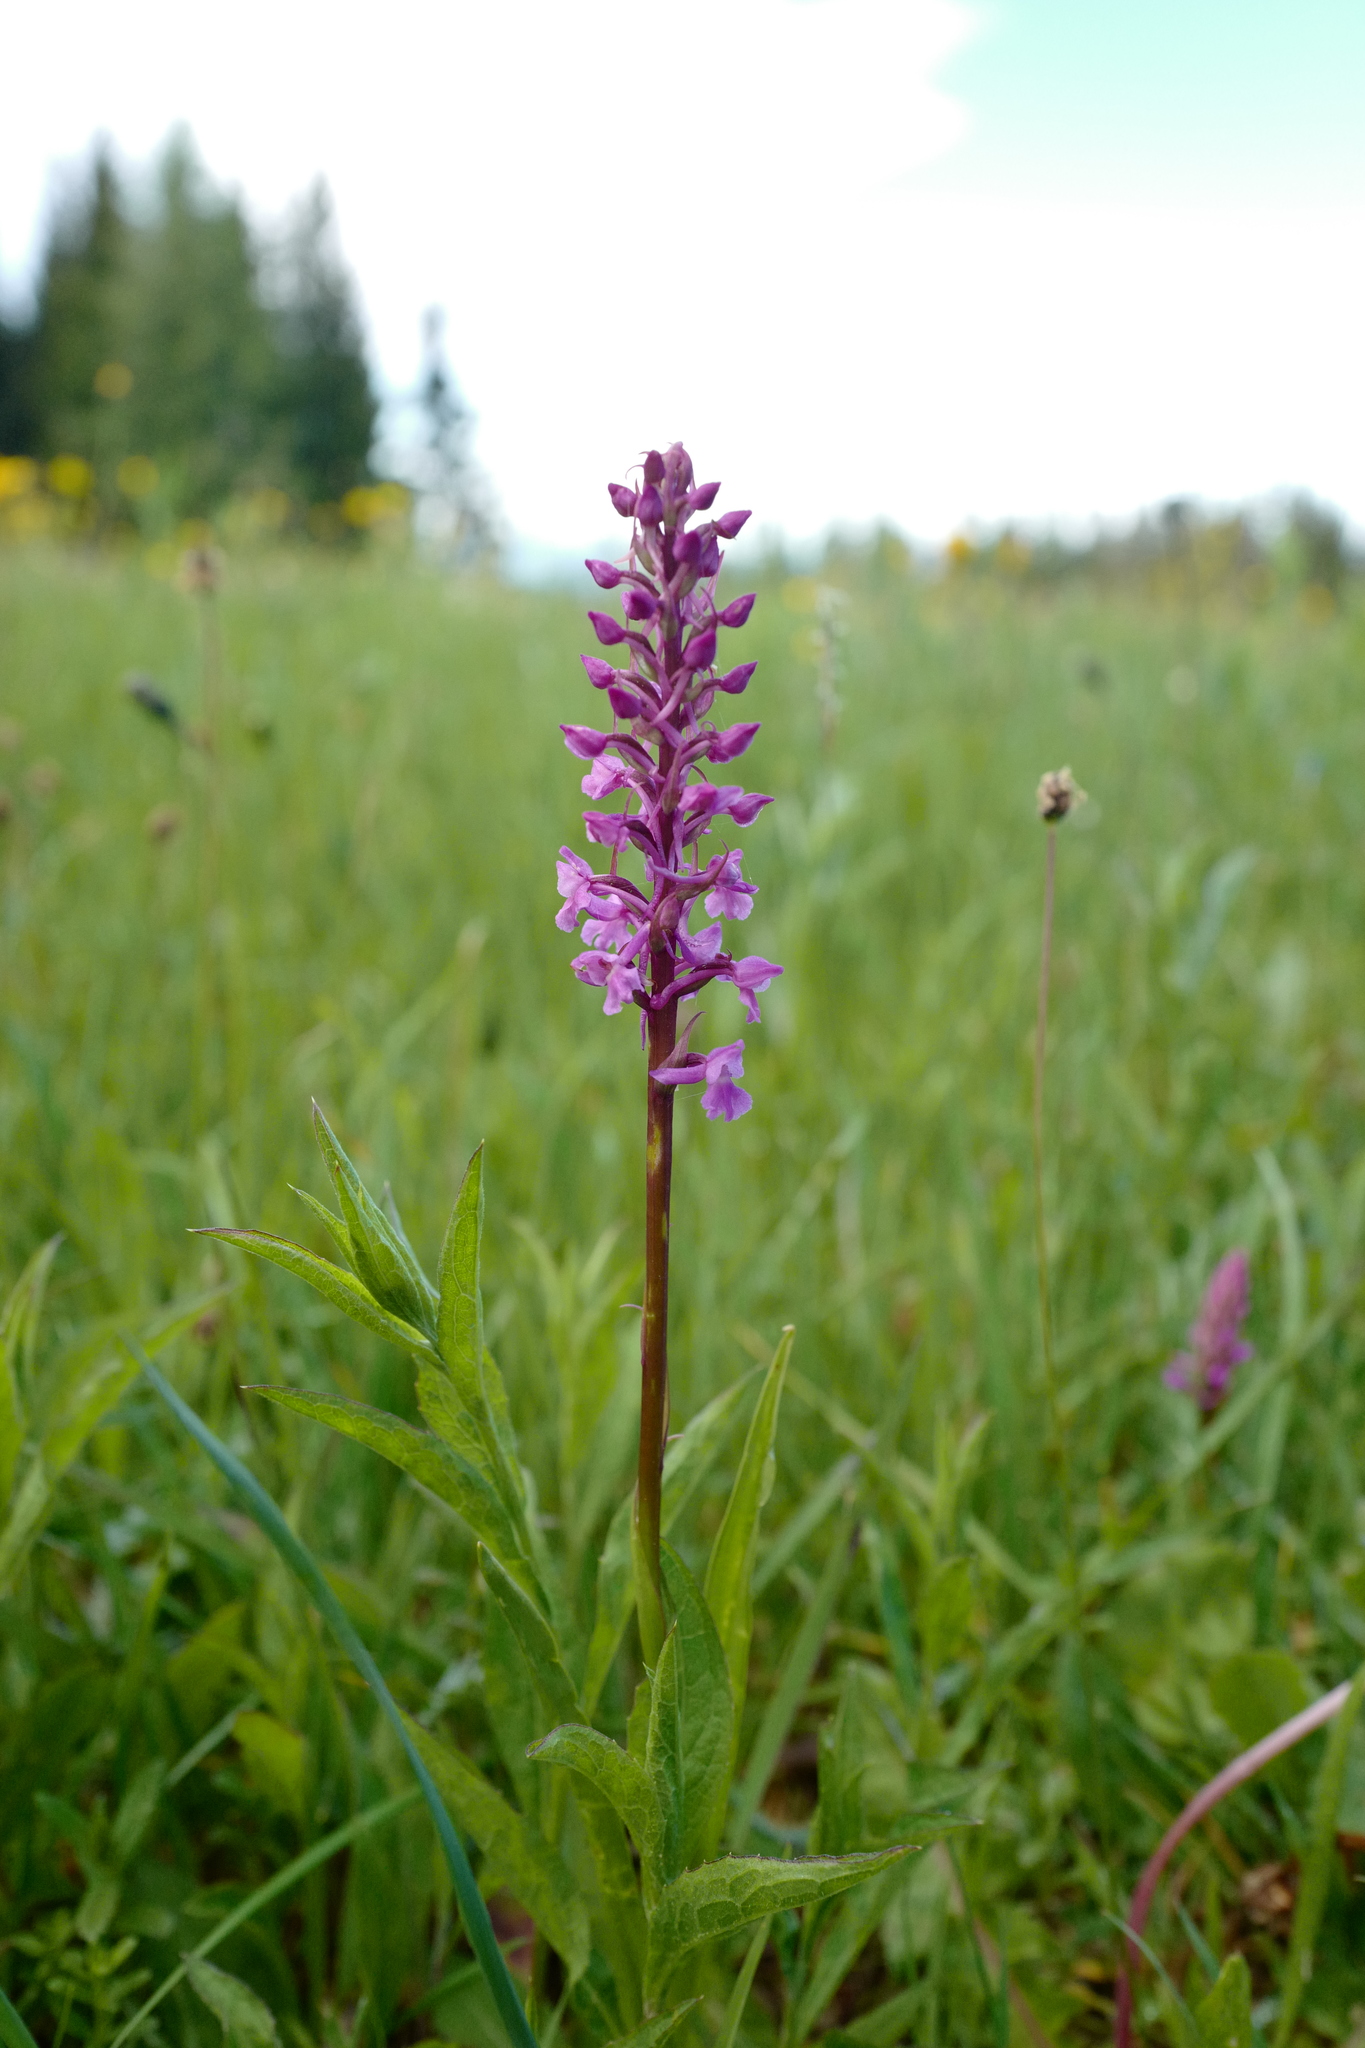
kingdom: Plantae
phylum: Tracheophyta
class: Liliopsida
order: Asparagales
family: Orchidaceae
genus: Gymnadenia
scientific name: Gymnadenia conopsea
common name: Fragrant orchid
